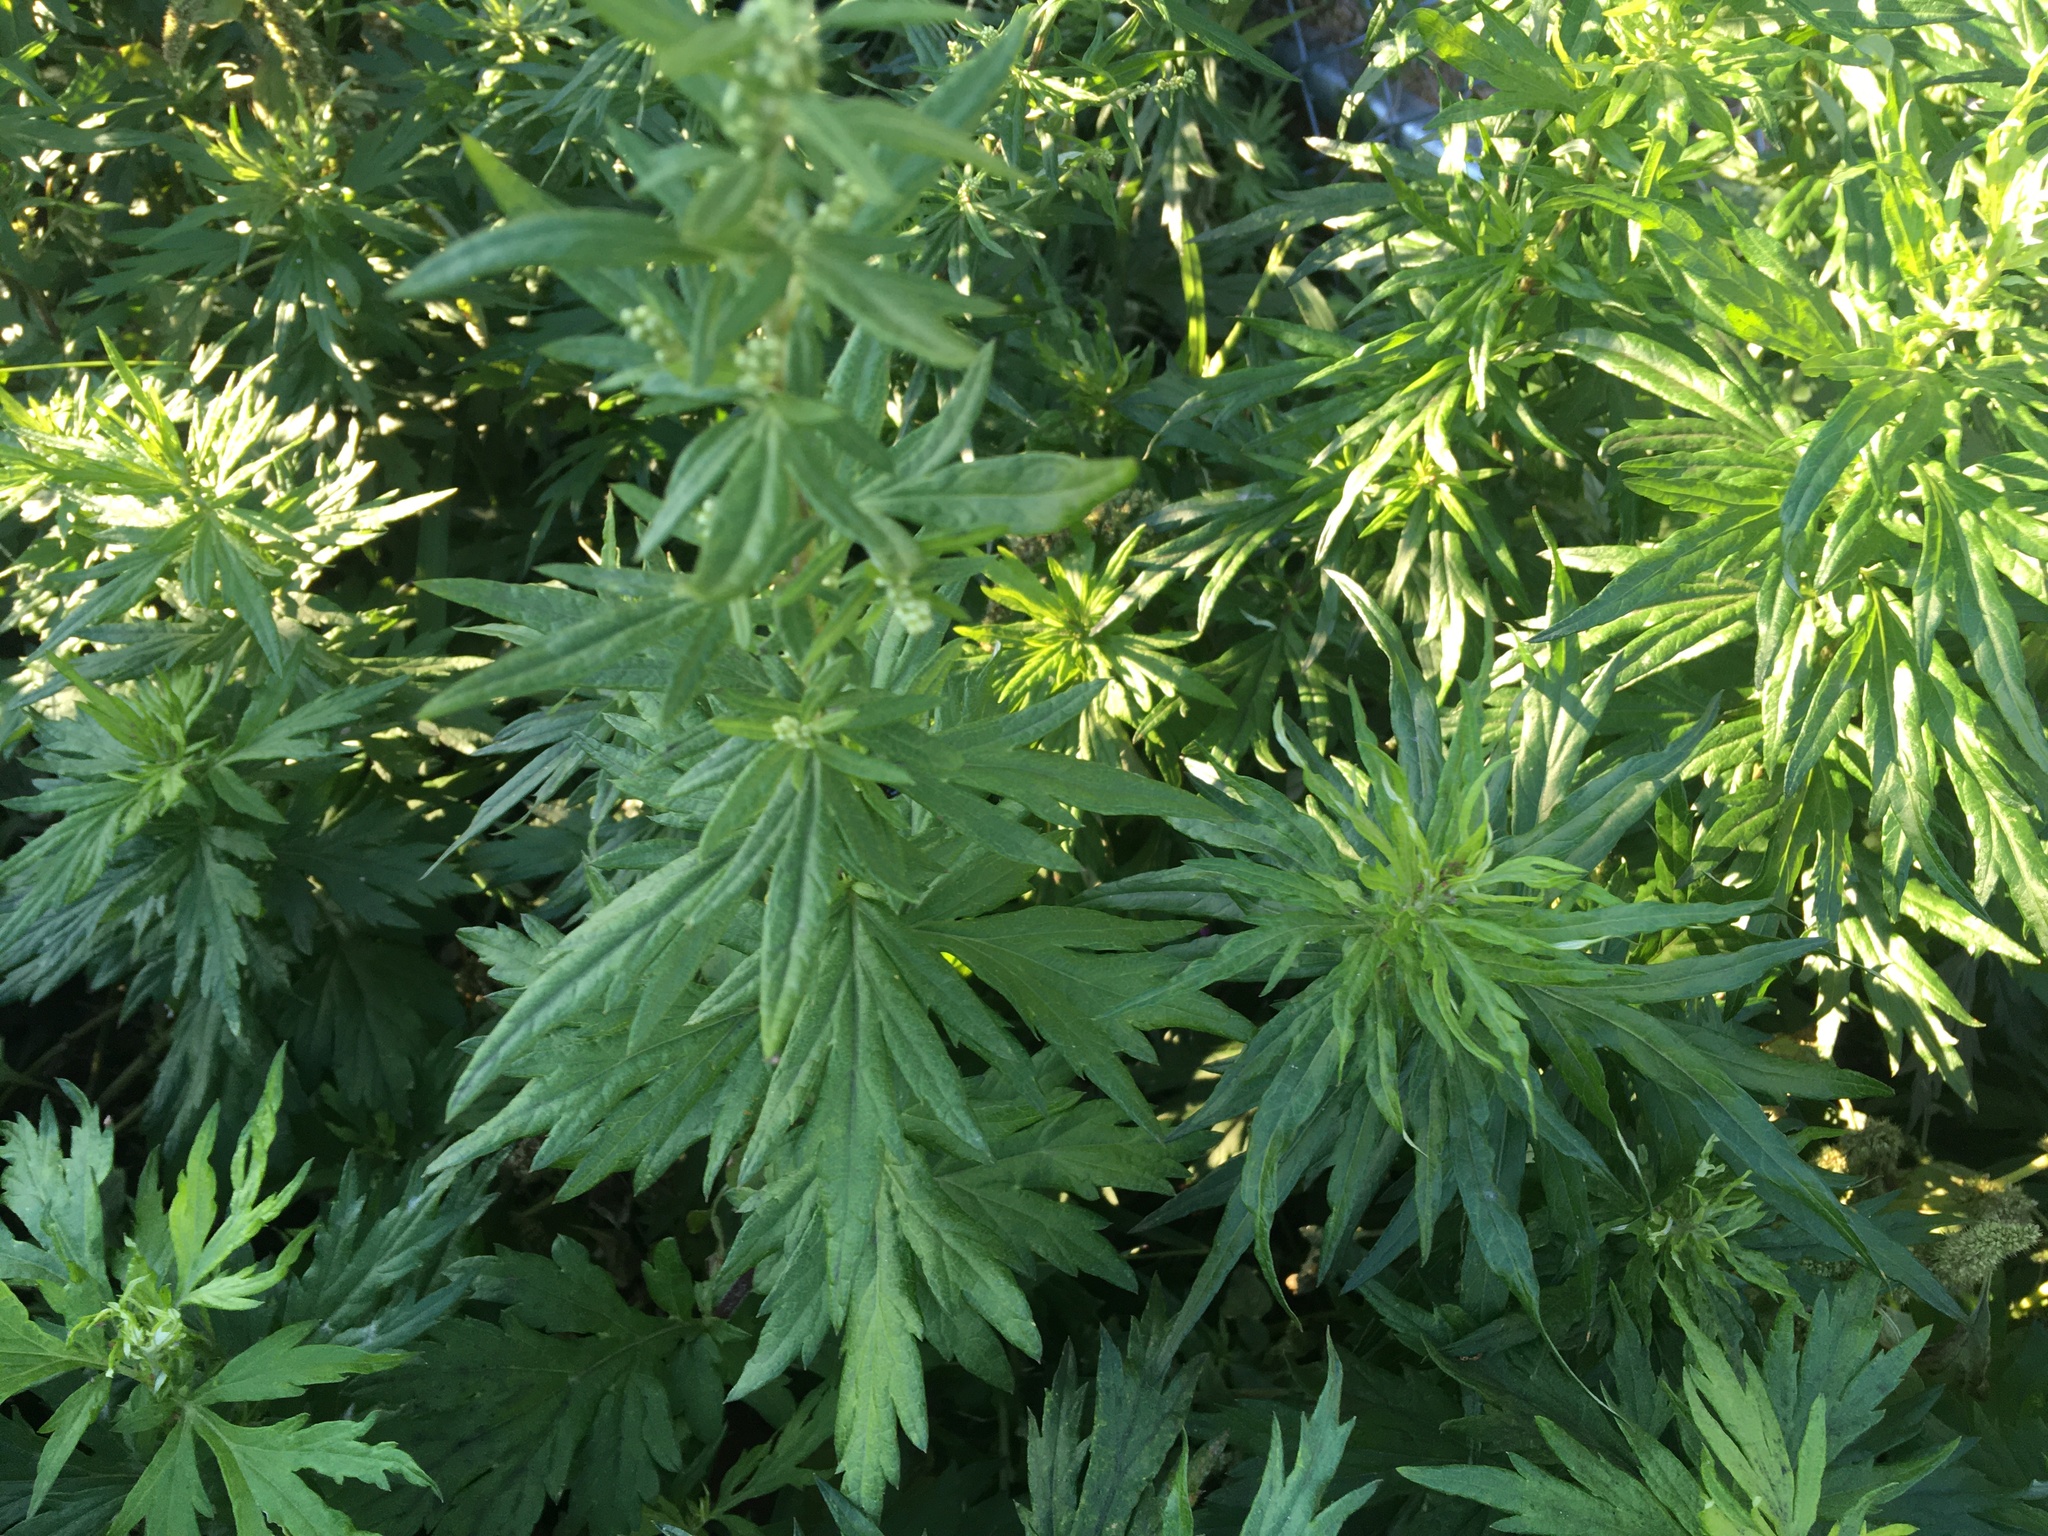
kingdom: Plantae
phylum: Tracheophyta
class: Magnoliopsida
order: Asterales
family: Asteraceae
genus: Artemisia
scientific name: Artemisia vulgaris
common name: Mugwort
